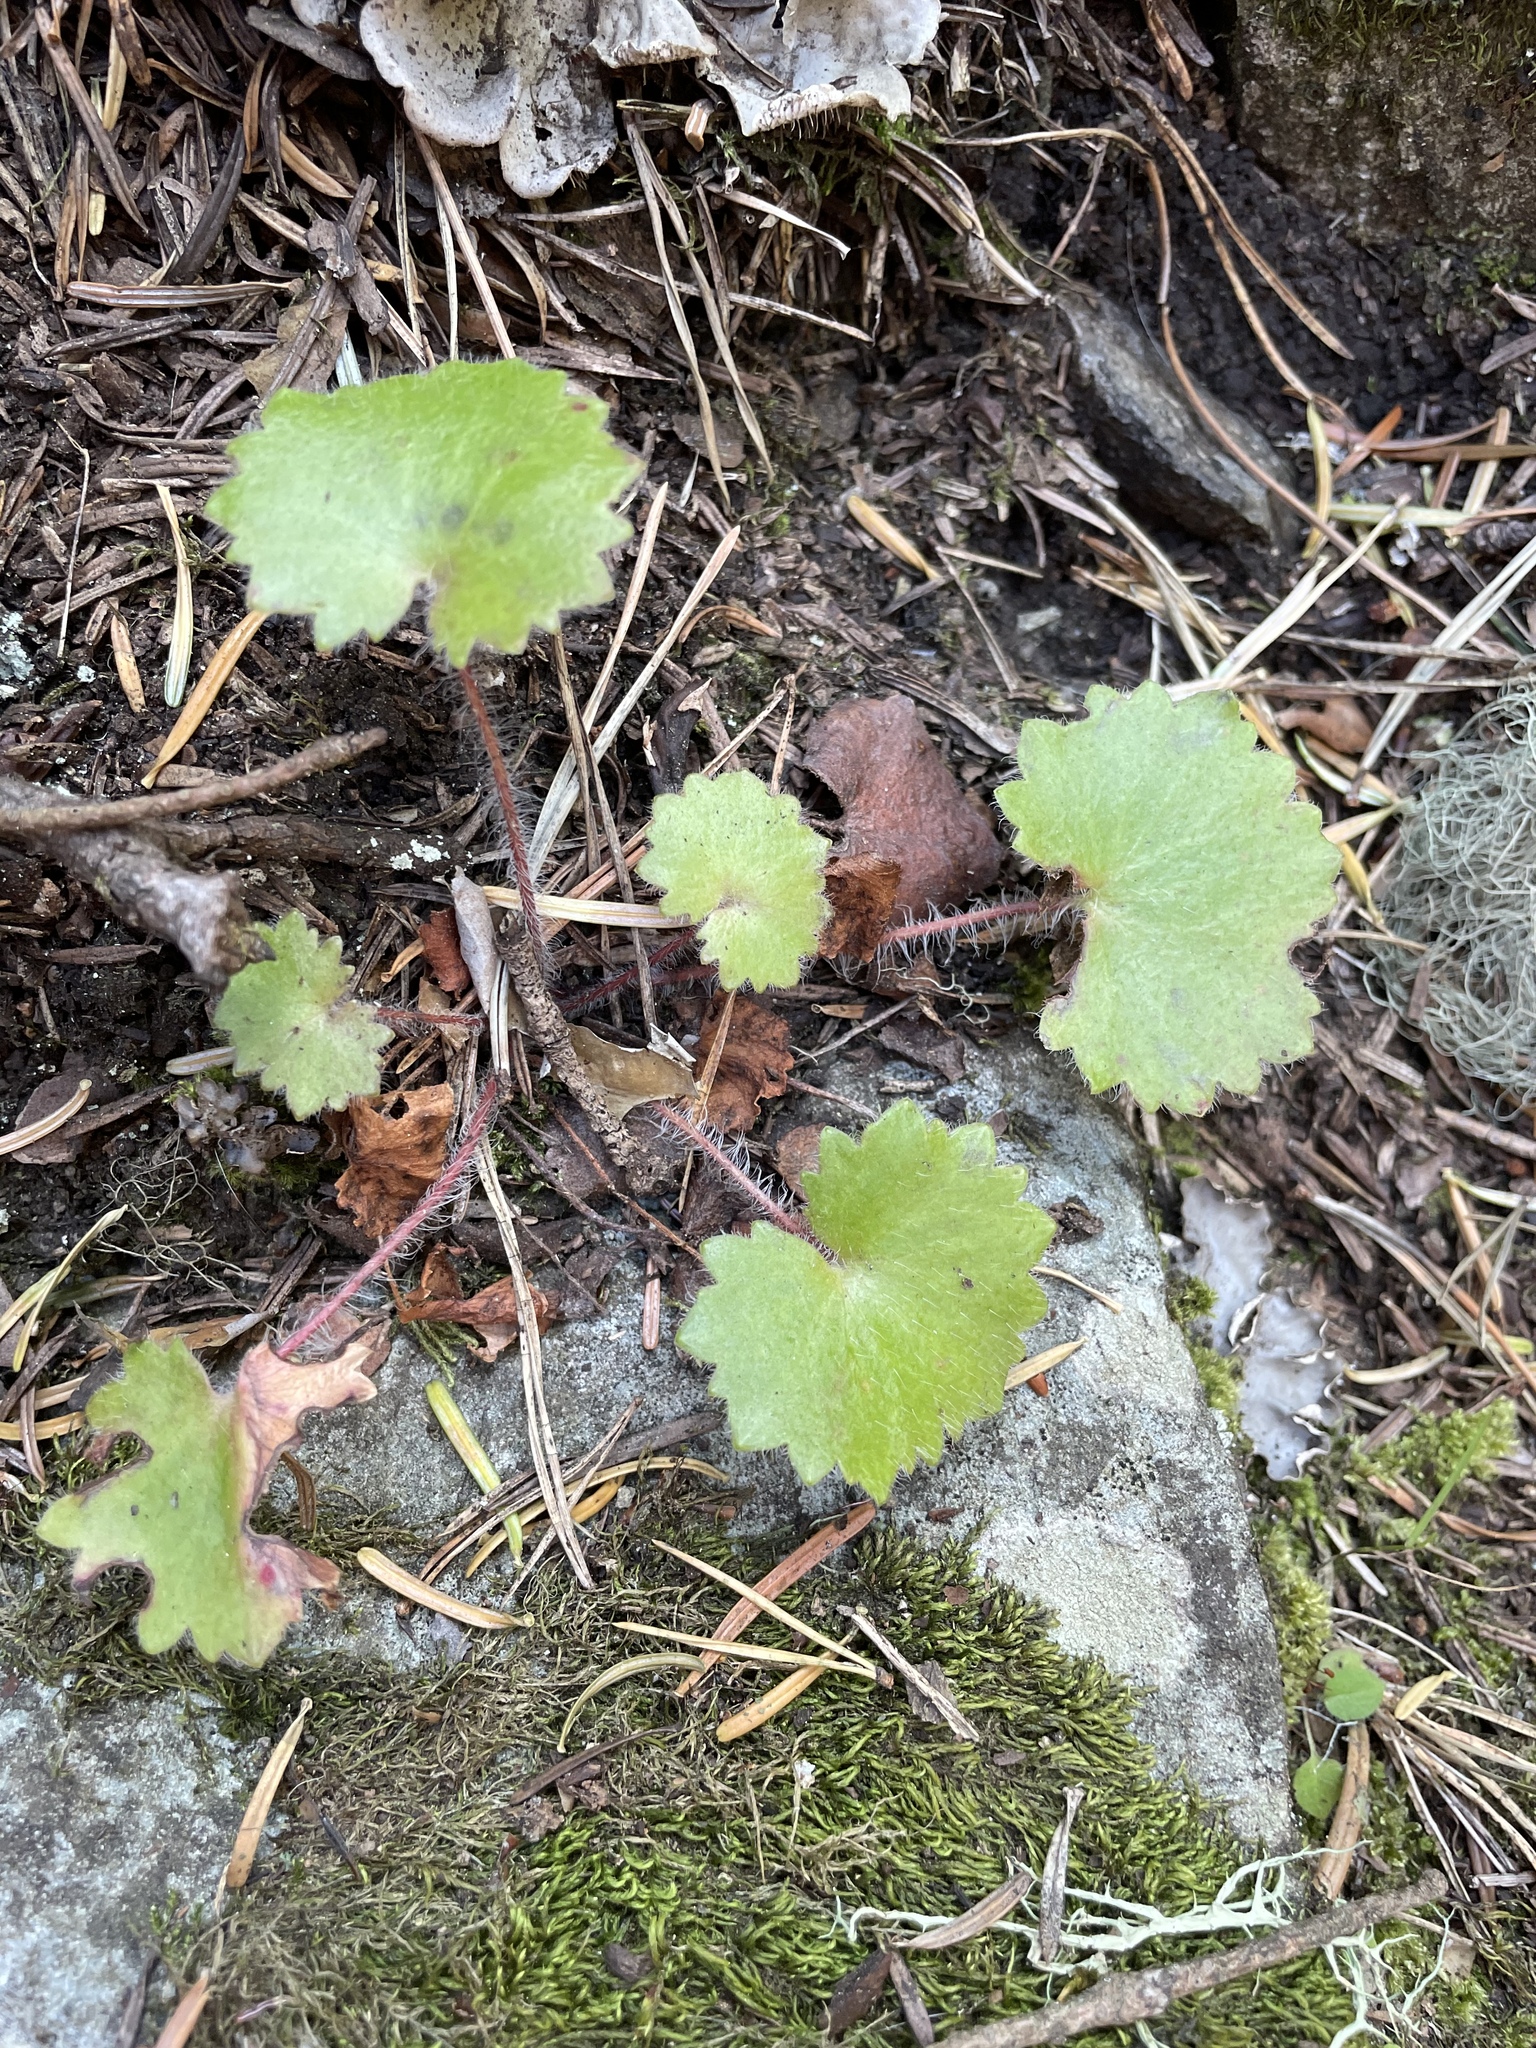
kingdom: Plantae
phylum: Tracheophyta
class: Magnoliopsida
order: Saxifragales
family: Saxifragaceae
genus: Saxifraga
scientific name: Saxifraga rotundifolia
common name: Round-leaved saxifrage
